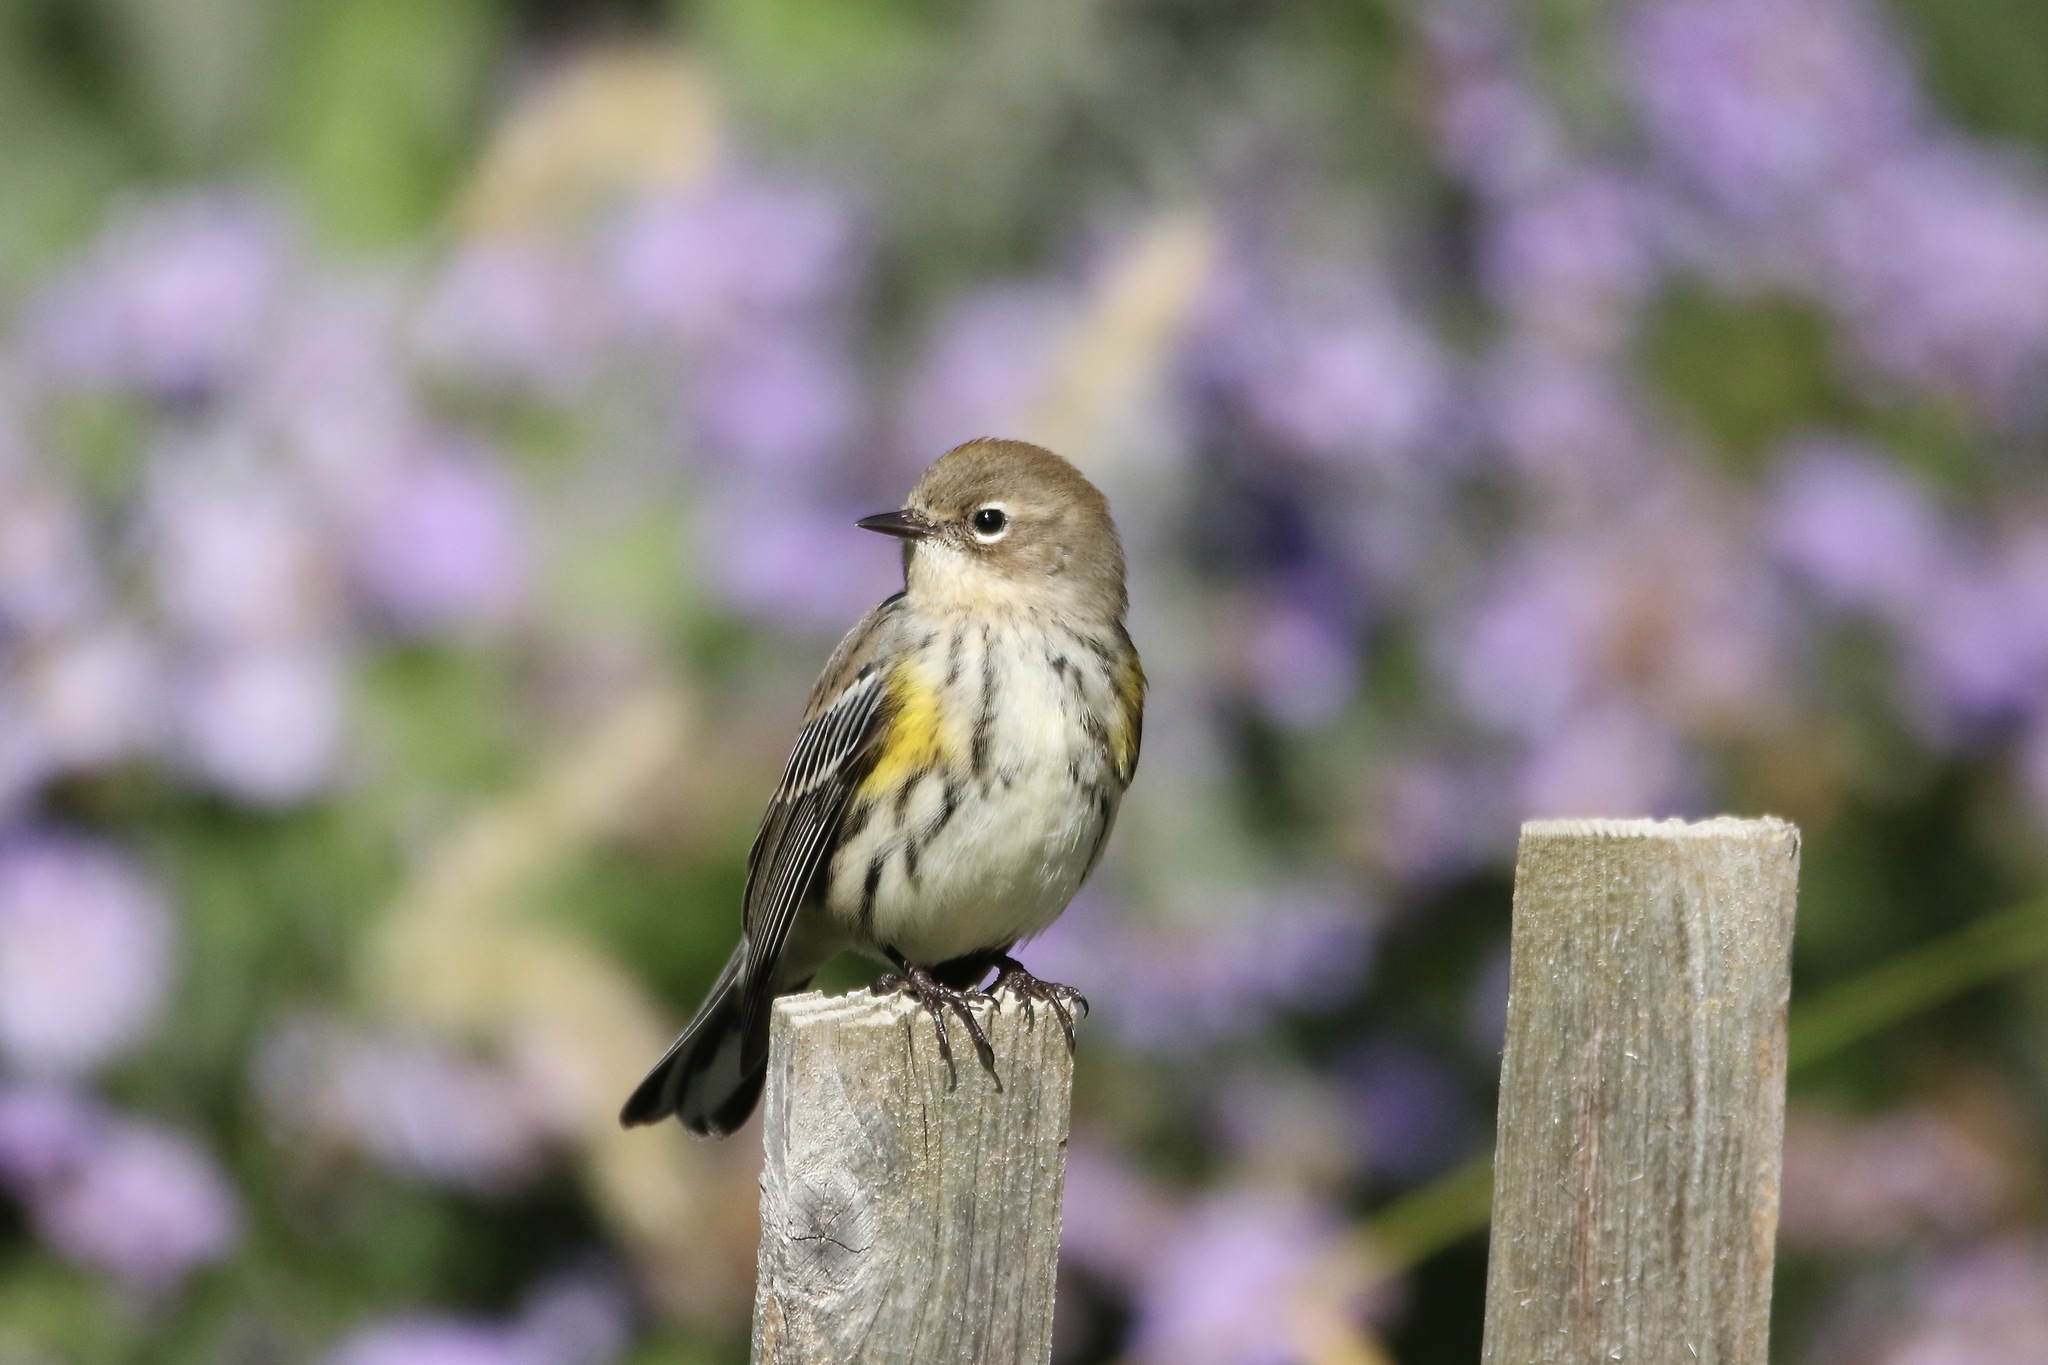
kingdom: Animalia
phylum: Chordata
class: Aves
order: Passeriformes
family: Parulidae
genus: Setophaga
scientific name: Setophaga coronata
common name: Myrtle warbler
